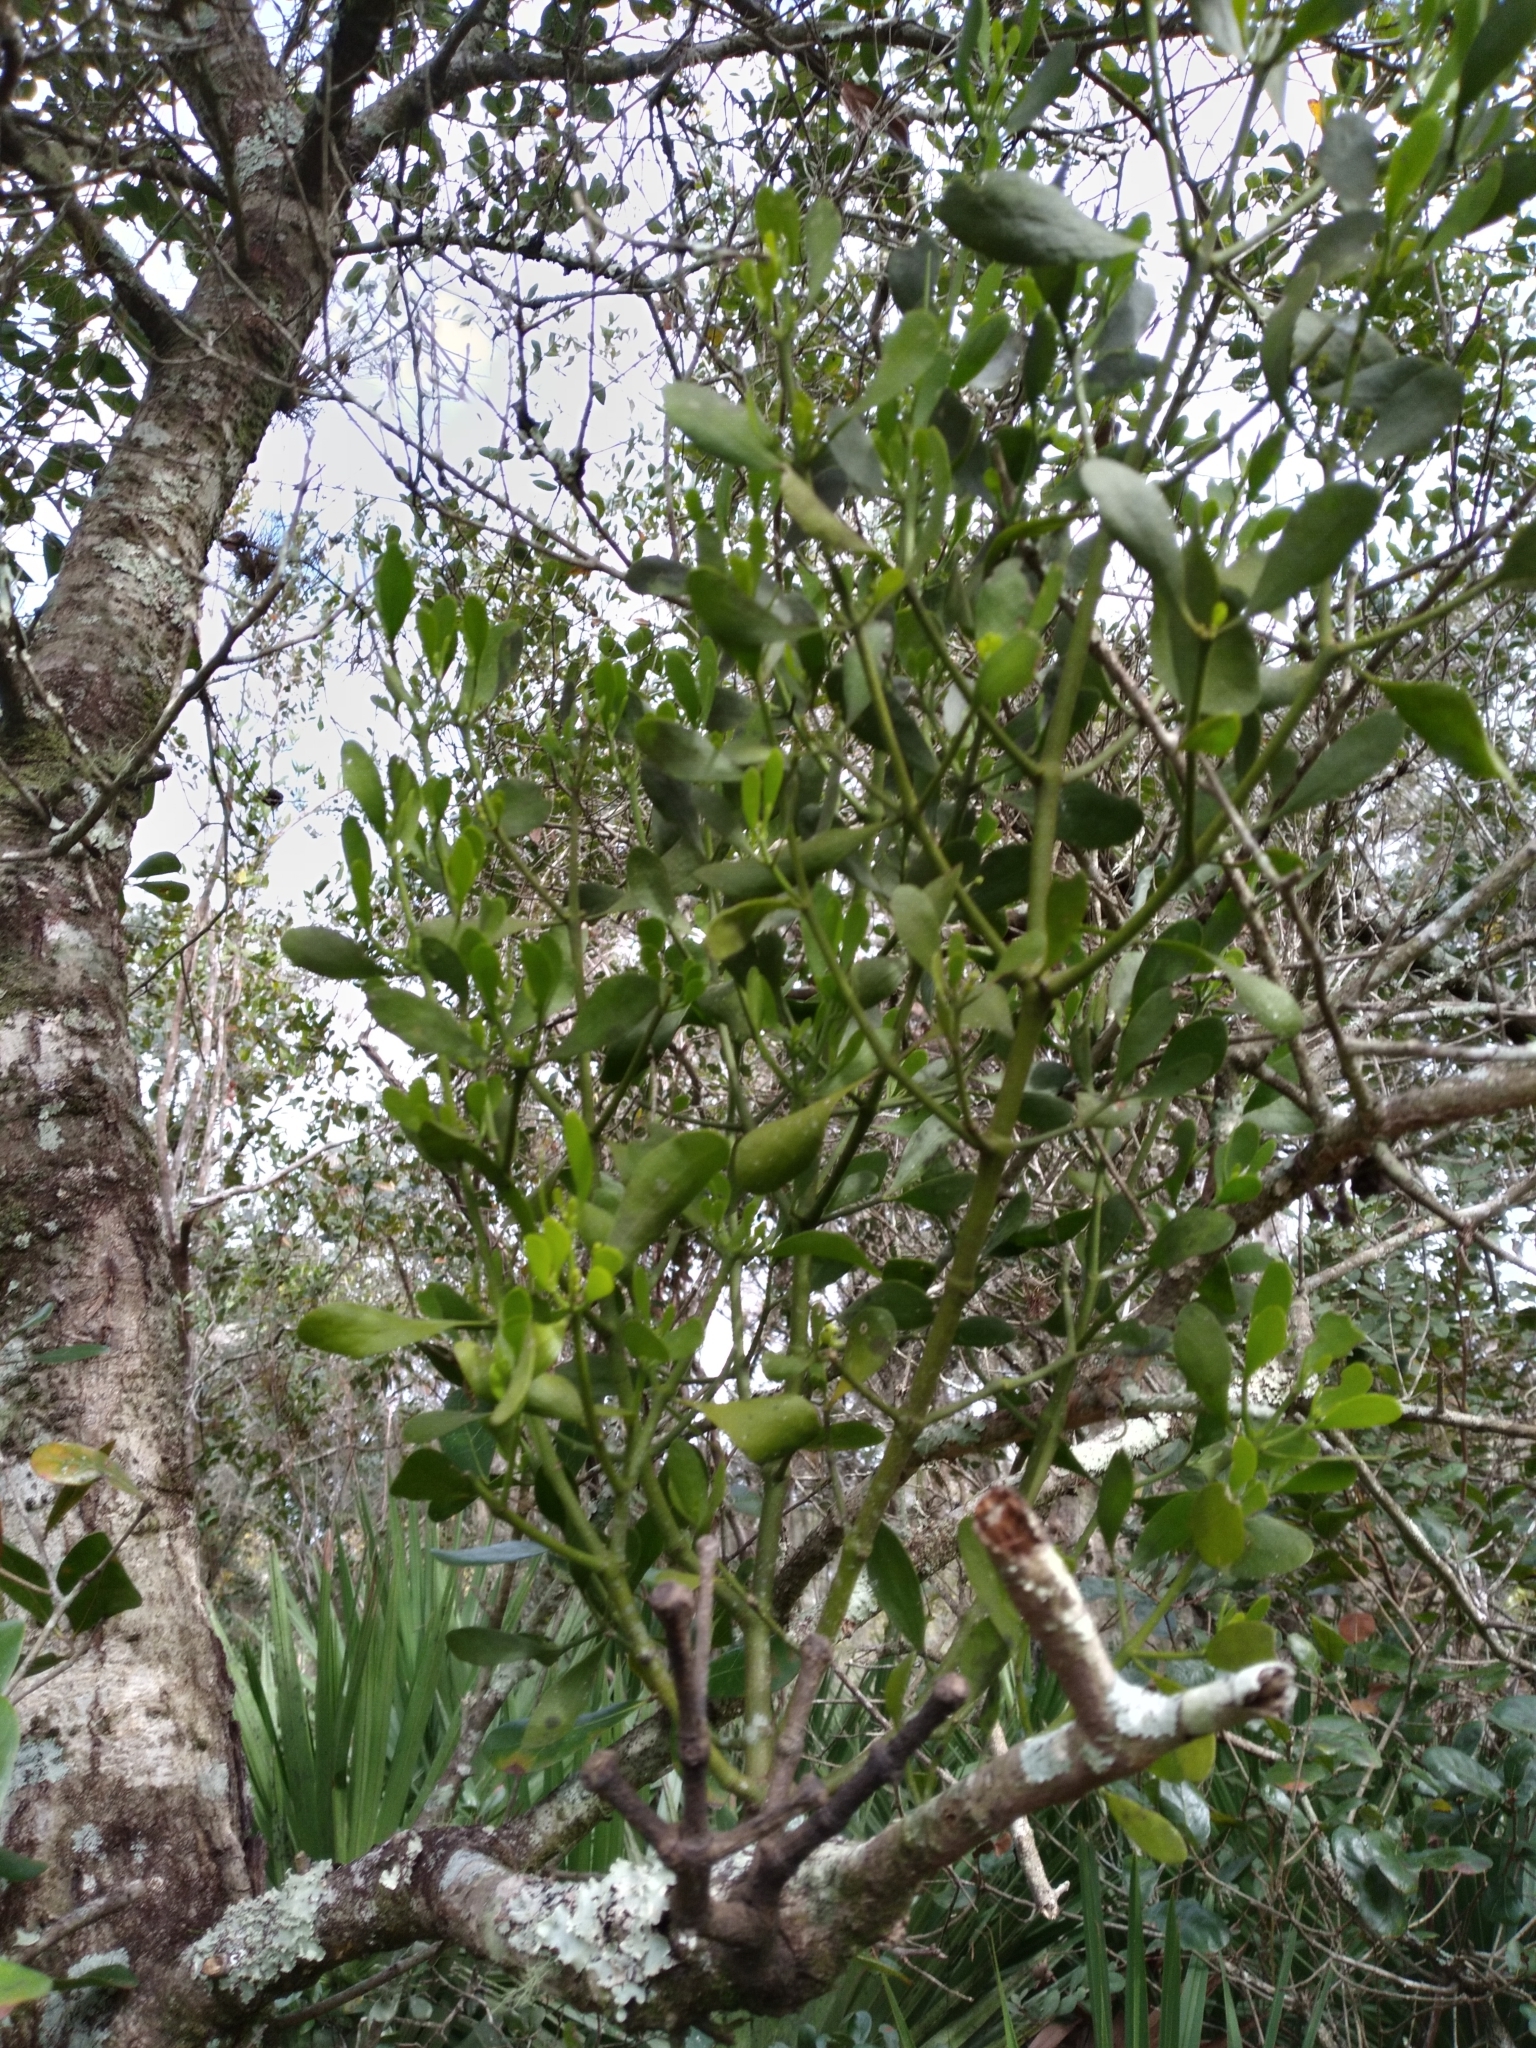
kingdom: Plantae
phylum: Tracheophyta
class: Magnoliopsida
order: Santalales
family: Viscaceae
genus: Phoradendron
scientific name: Phoradendron leucarpum
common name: Pacific mistletoe
